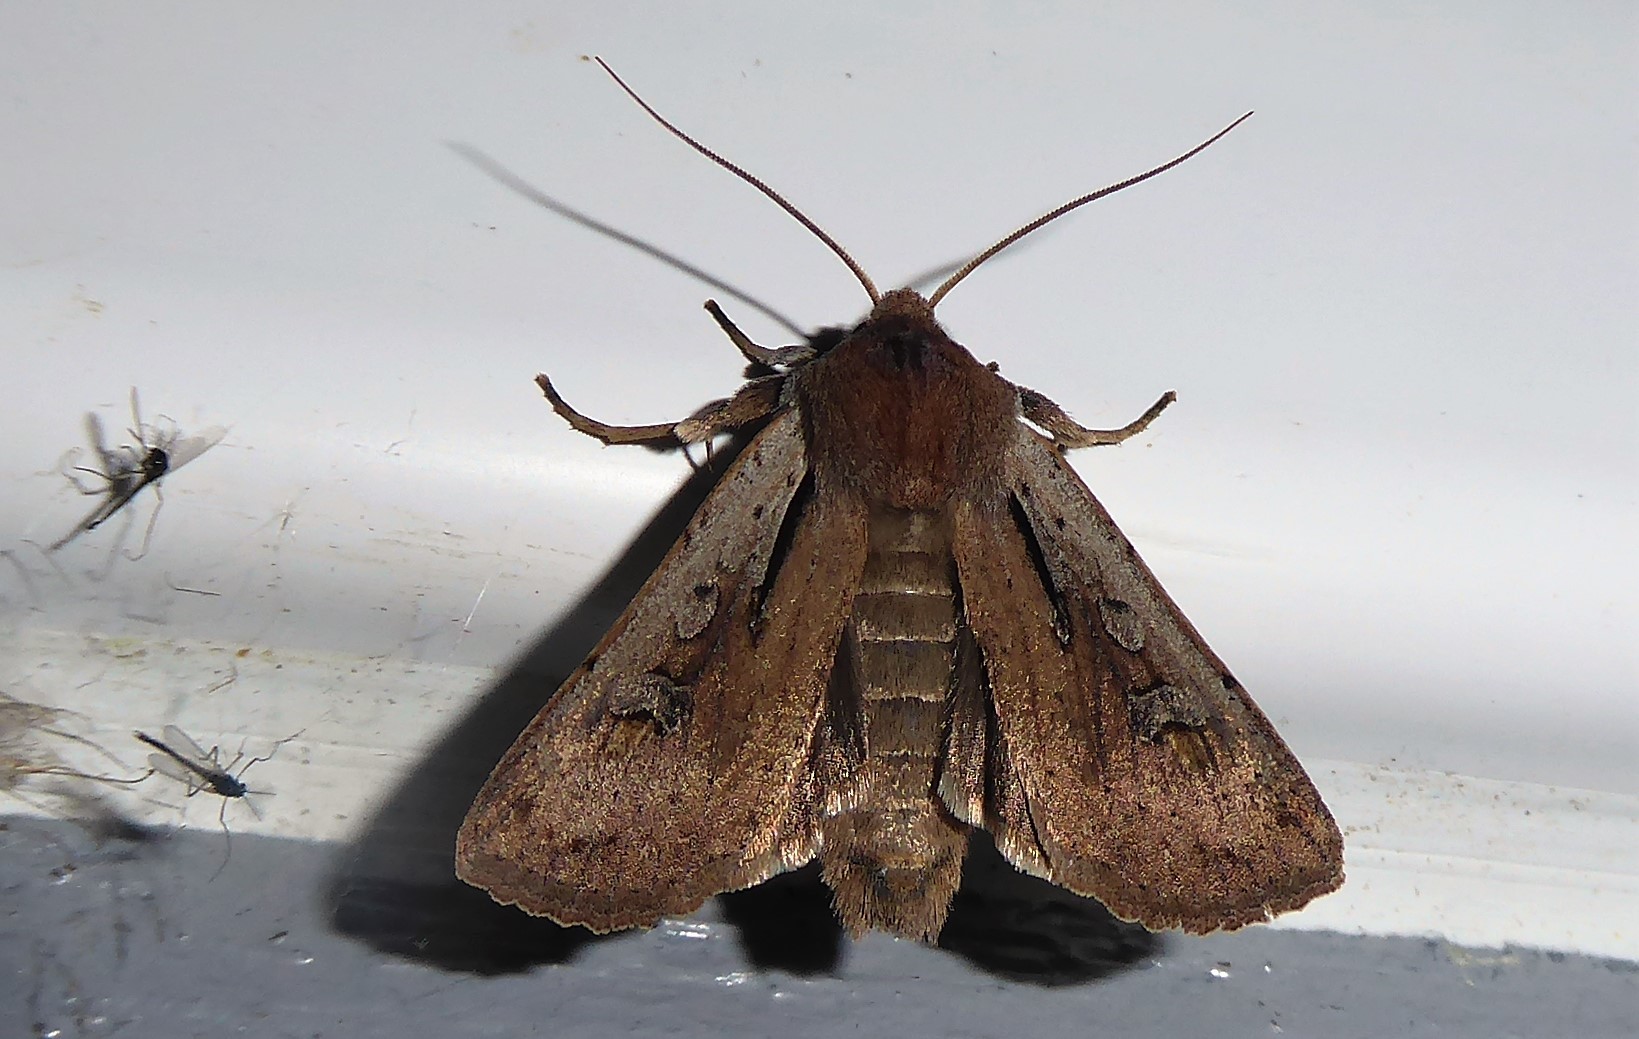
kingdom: Animalia
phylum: Arthropoda
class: Insecta
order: Lepidoptera
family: Noctuidae
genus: Ichneutica
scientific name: Ichneutica atristriga
